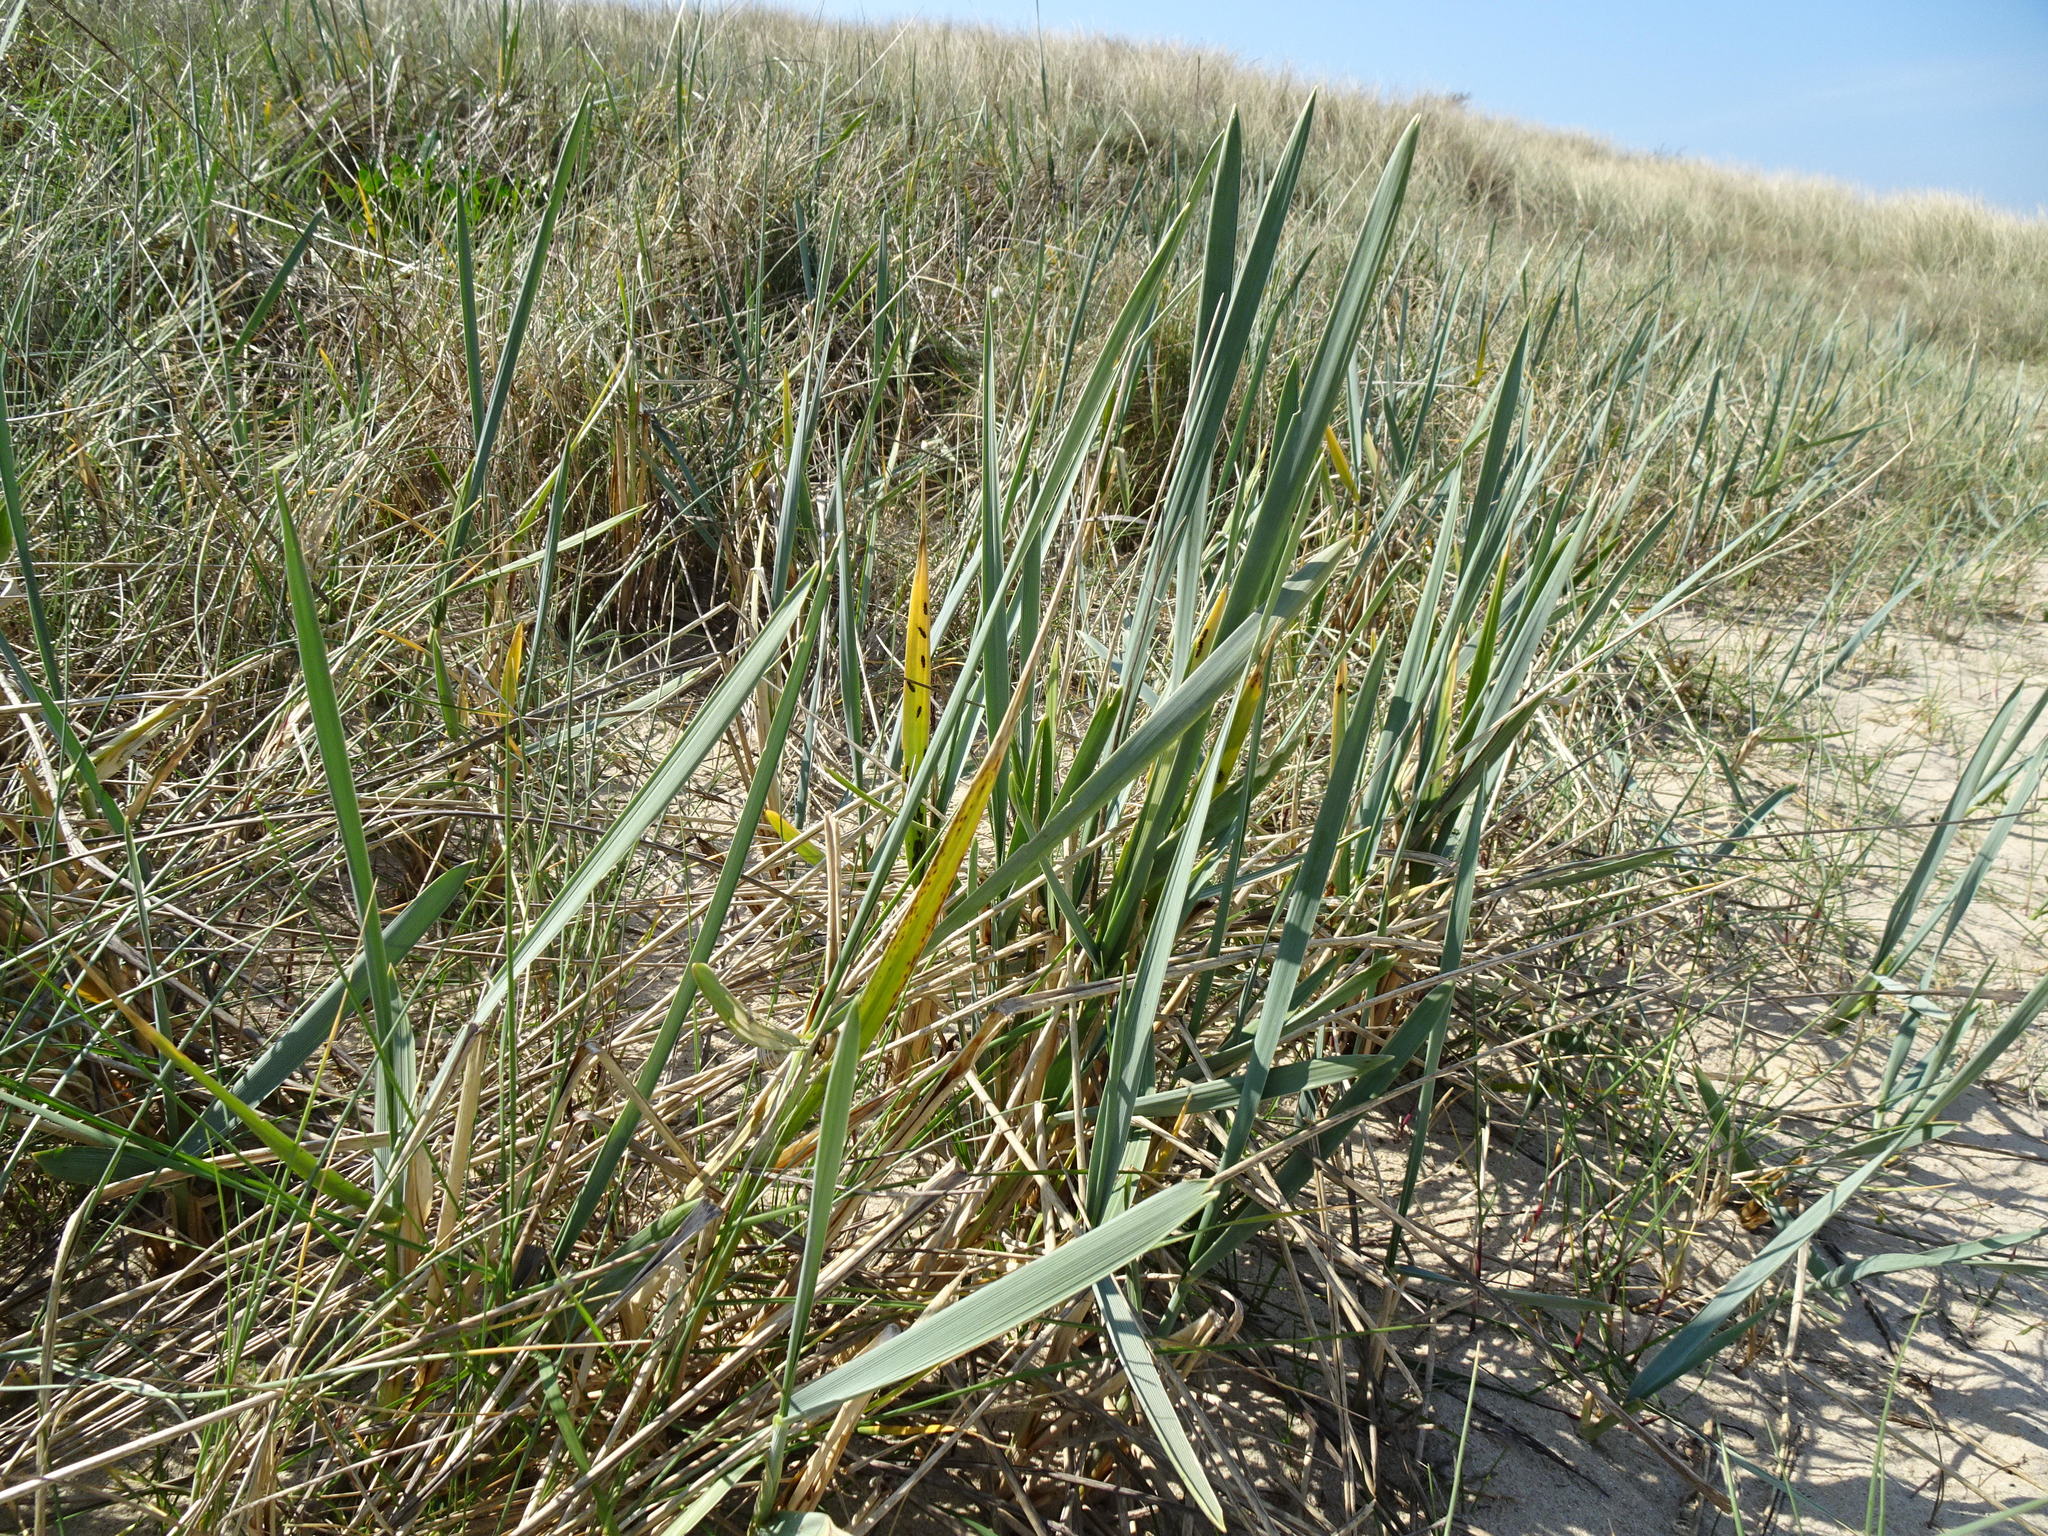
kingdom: Plantae
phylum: Tracheophyta
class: Liliopsida
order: Poales
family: Poaceae
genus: Leymus
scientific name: Leymus arenarius
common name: Lyme-grass
